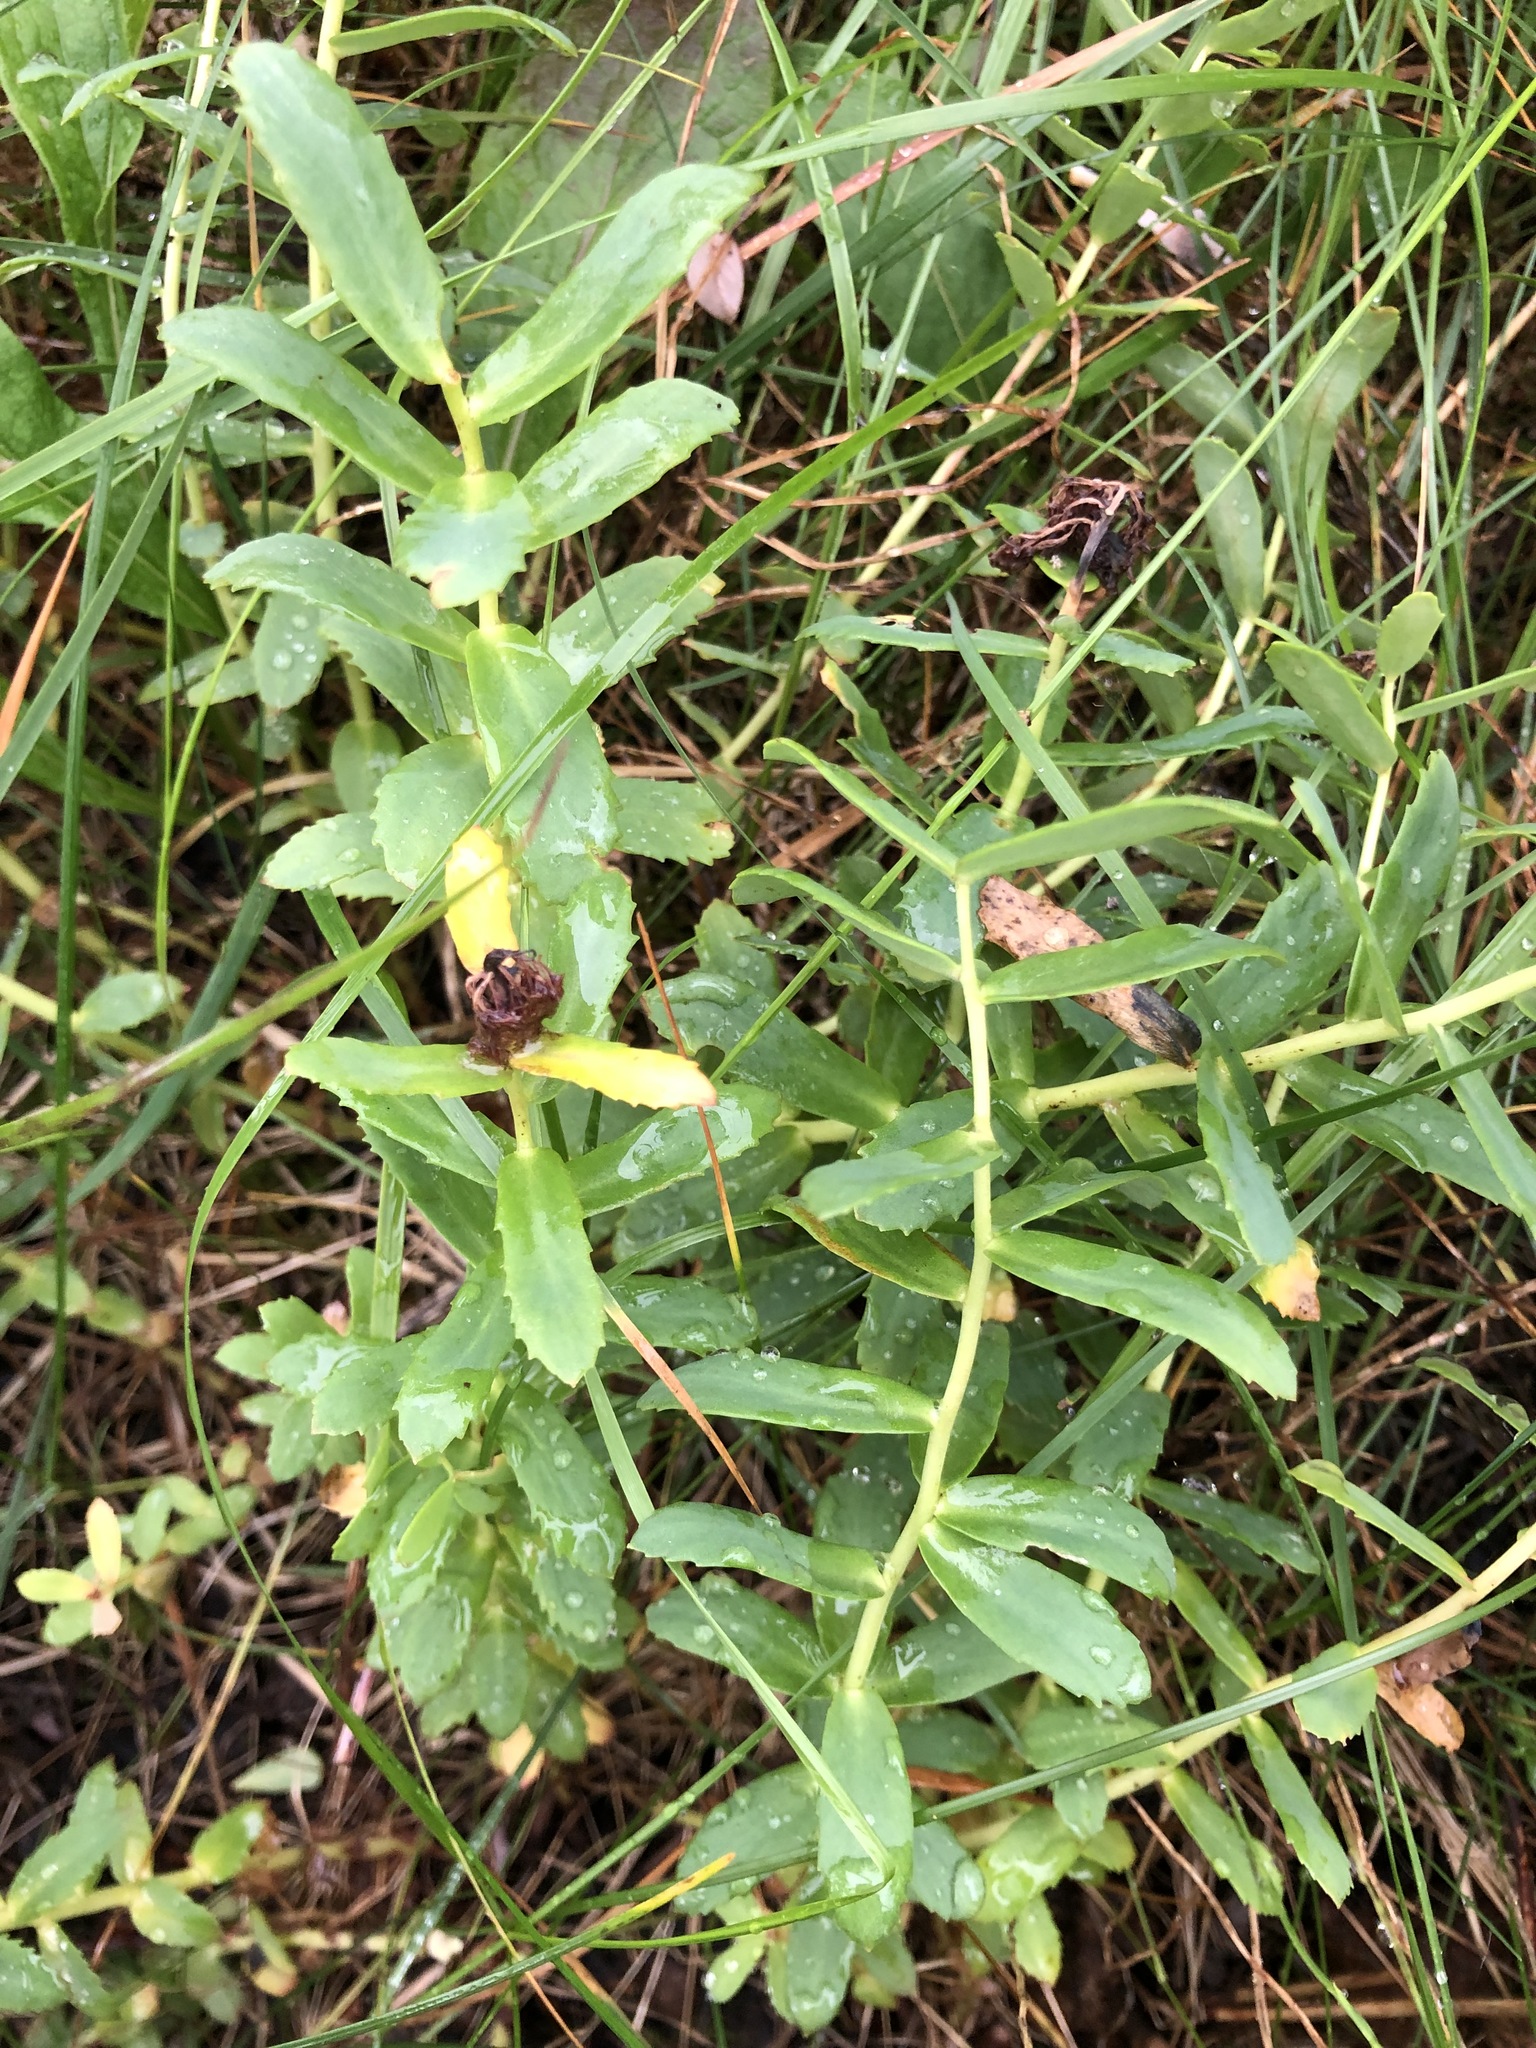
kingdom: Plantae
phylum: Tracheophyta
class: Magnoliopsida
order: Saxifragales
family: Crassulaceae
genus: Rhodiola
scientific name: Rhodiola rosea
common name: Roseroot
